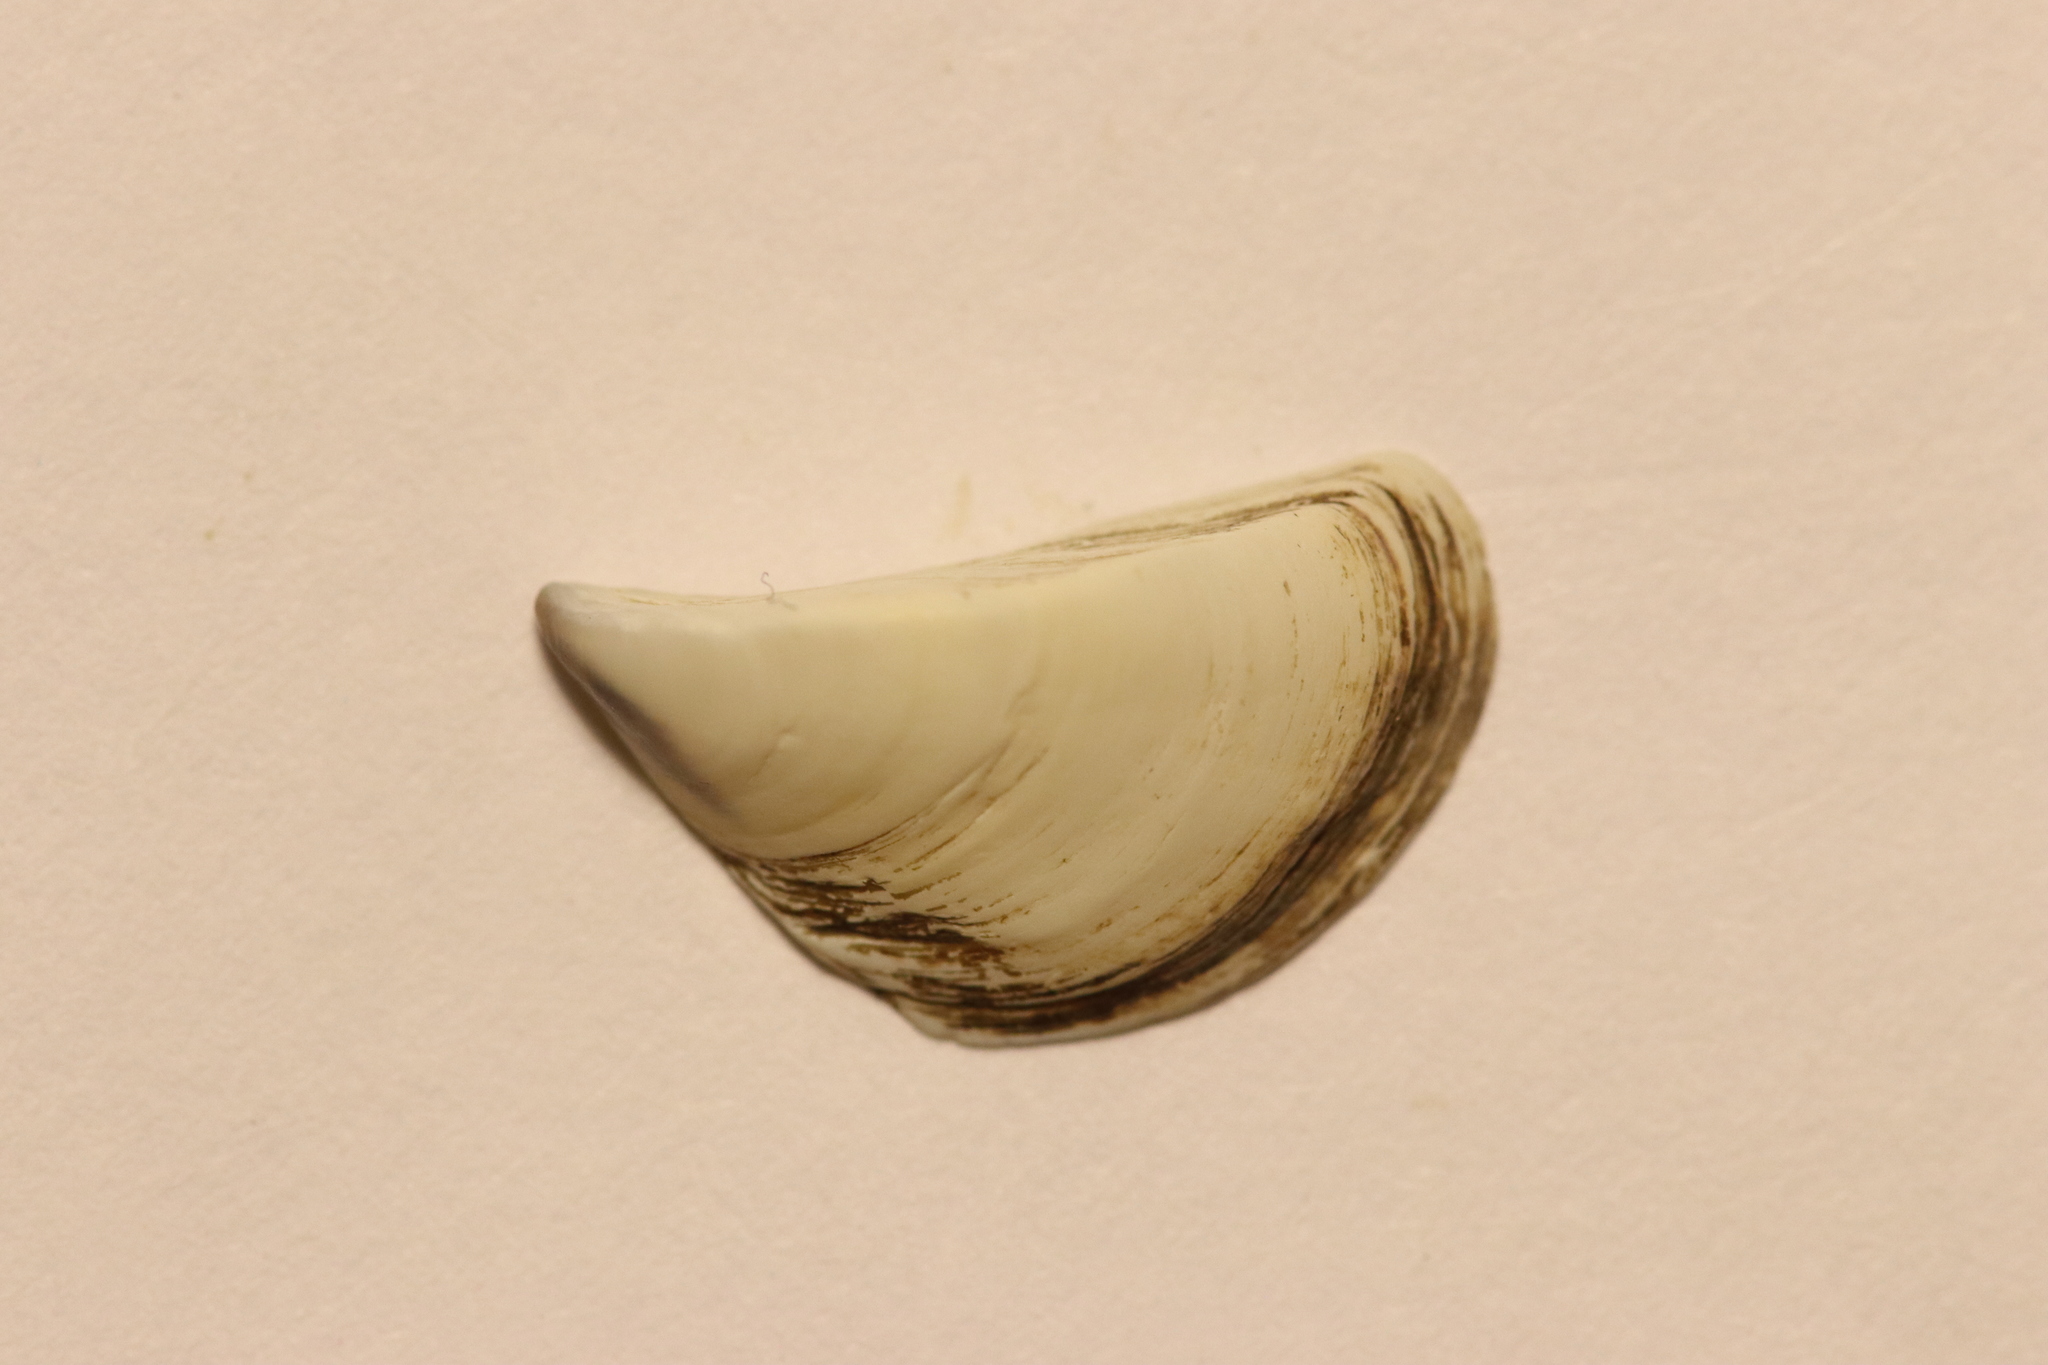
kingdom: Animalia
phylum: Mollusca
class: Bivalvia
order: Myida
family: Dreissenidae
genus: Dreissena
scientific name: Dreissena polymorpha
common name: Zebra mussel
